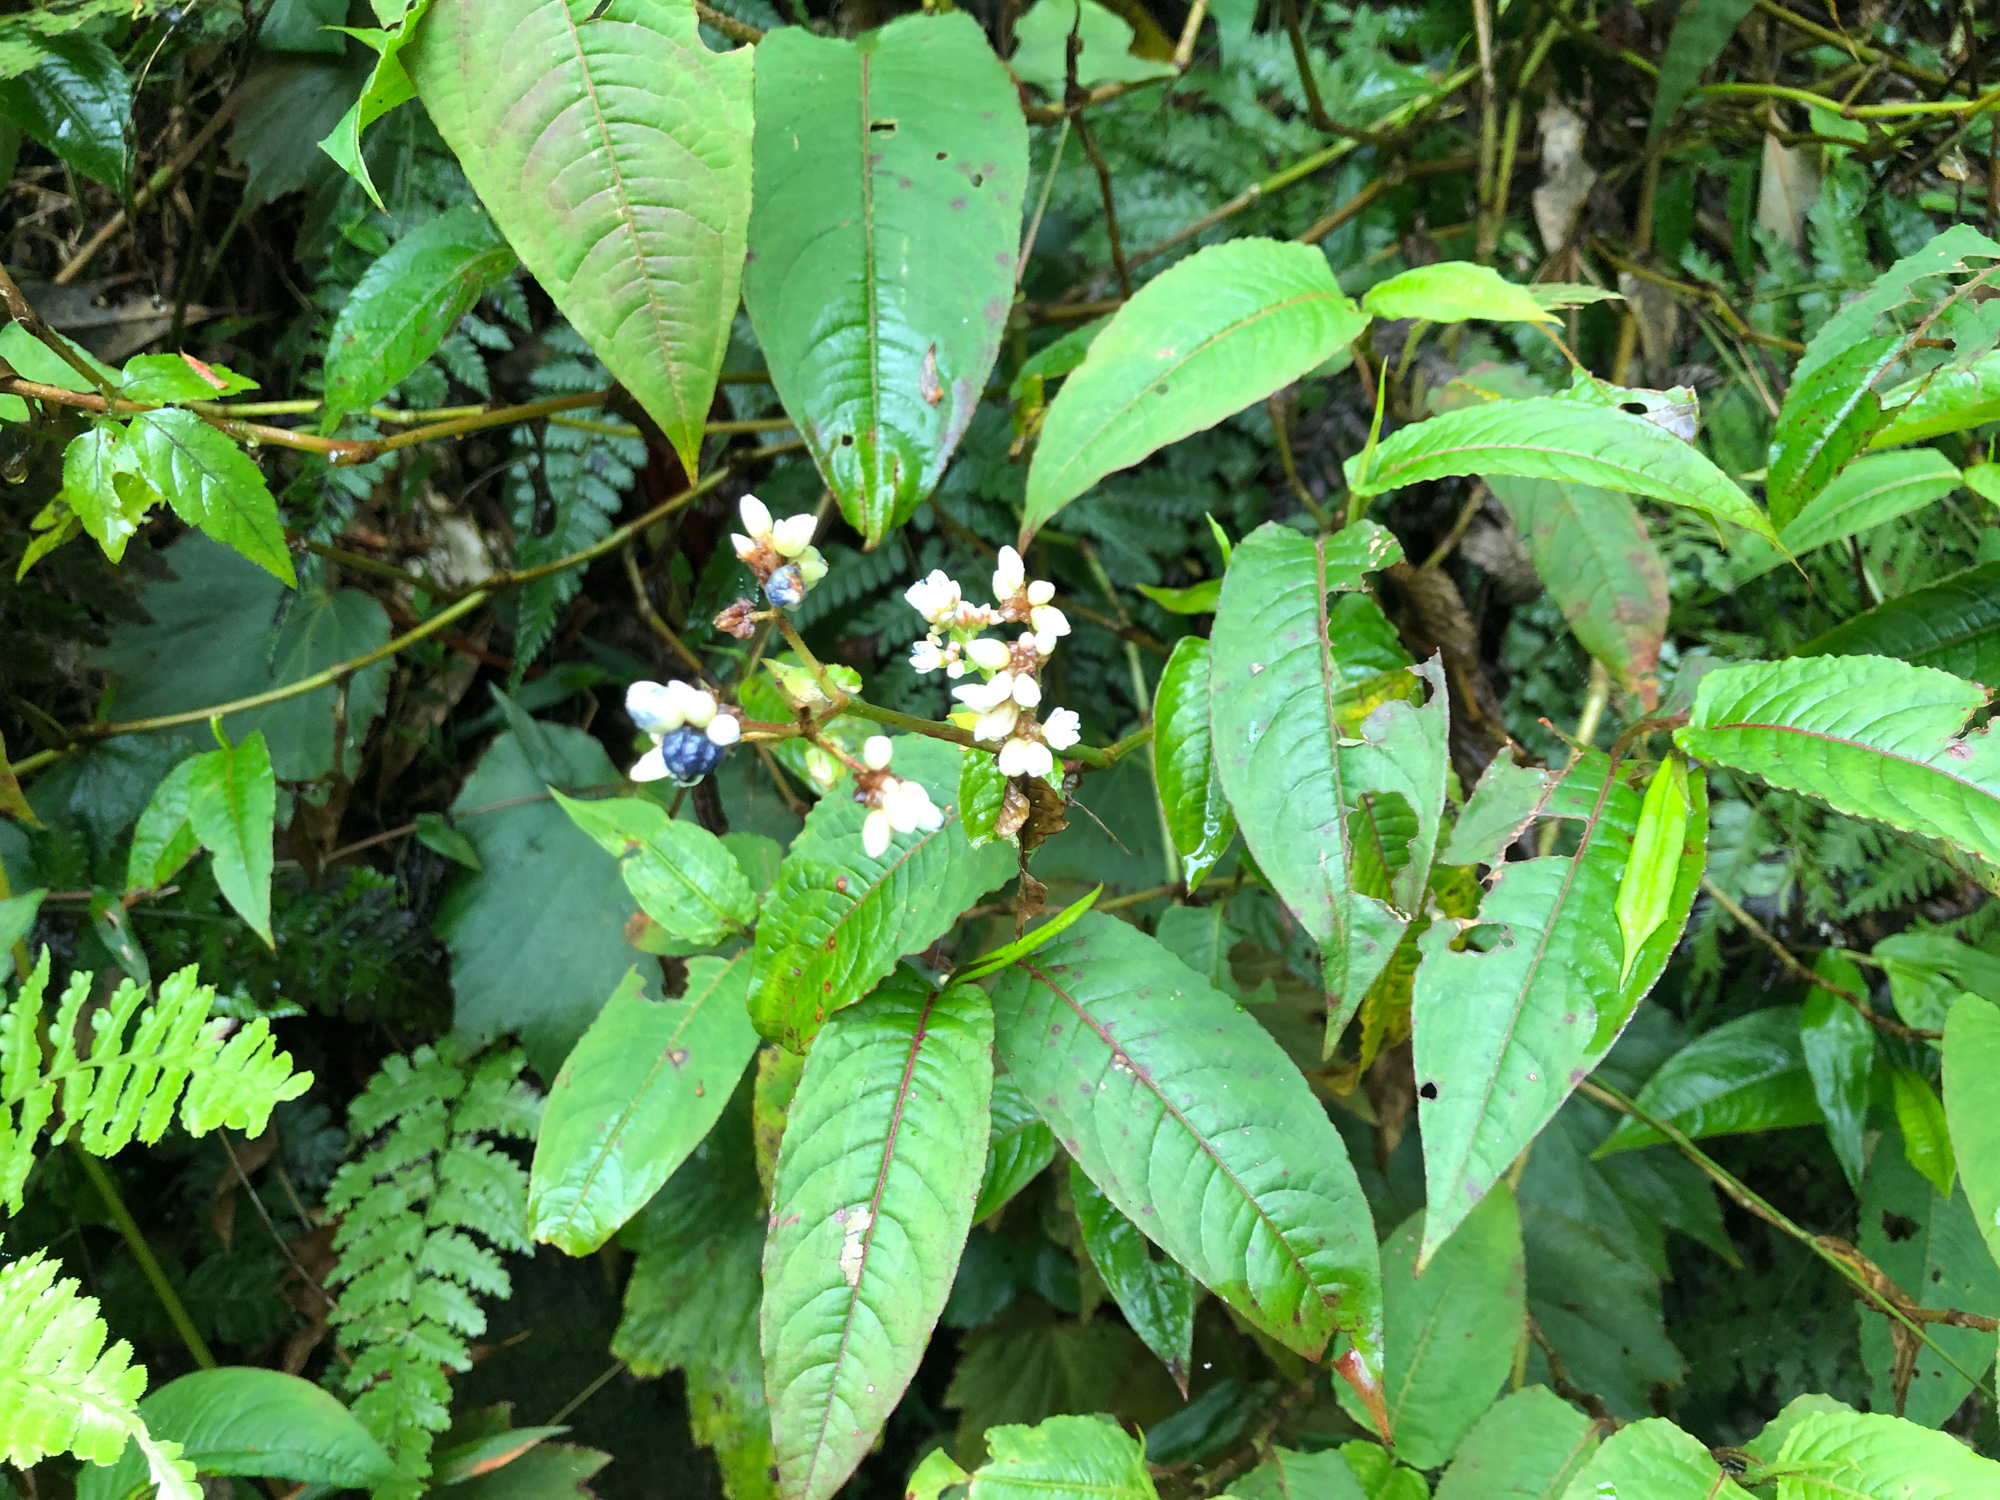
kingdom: Plantae
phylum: Tracheophyta
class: Magnoliopsida
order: Caryophyllales
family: Polygonaceae
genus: Persicaria
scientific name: Persicaria chinensis
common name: Chinese knotweed
